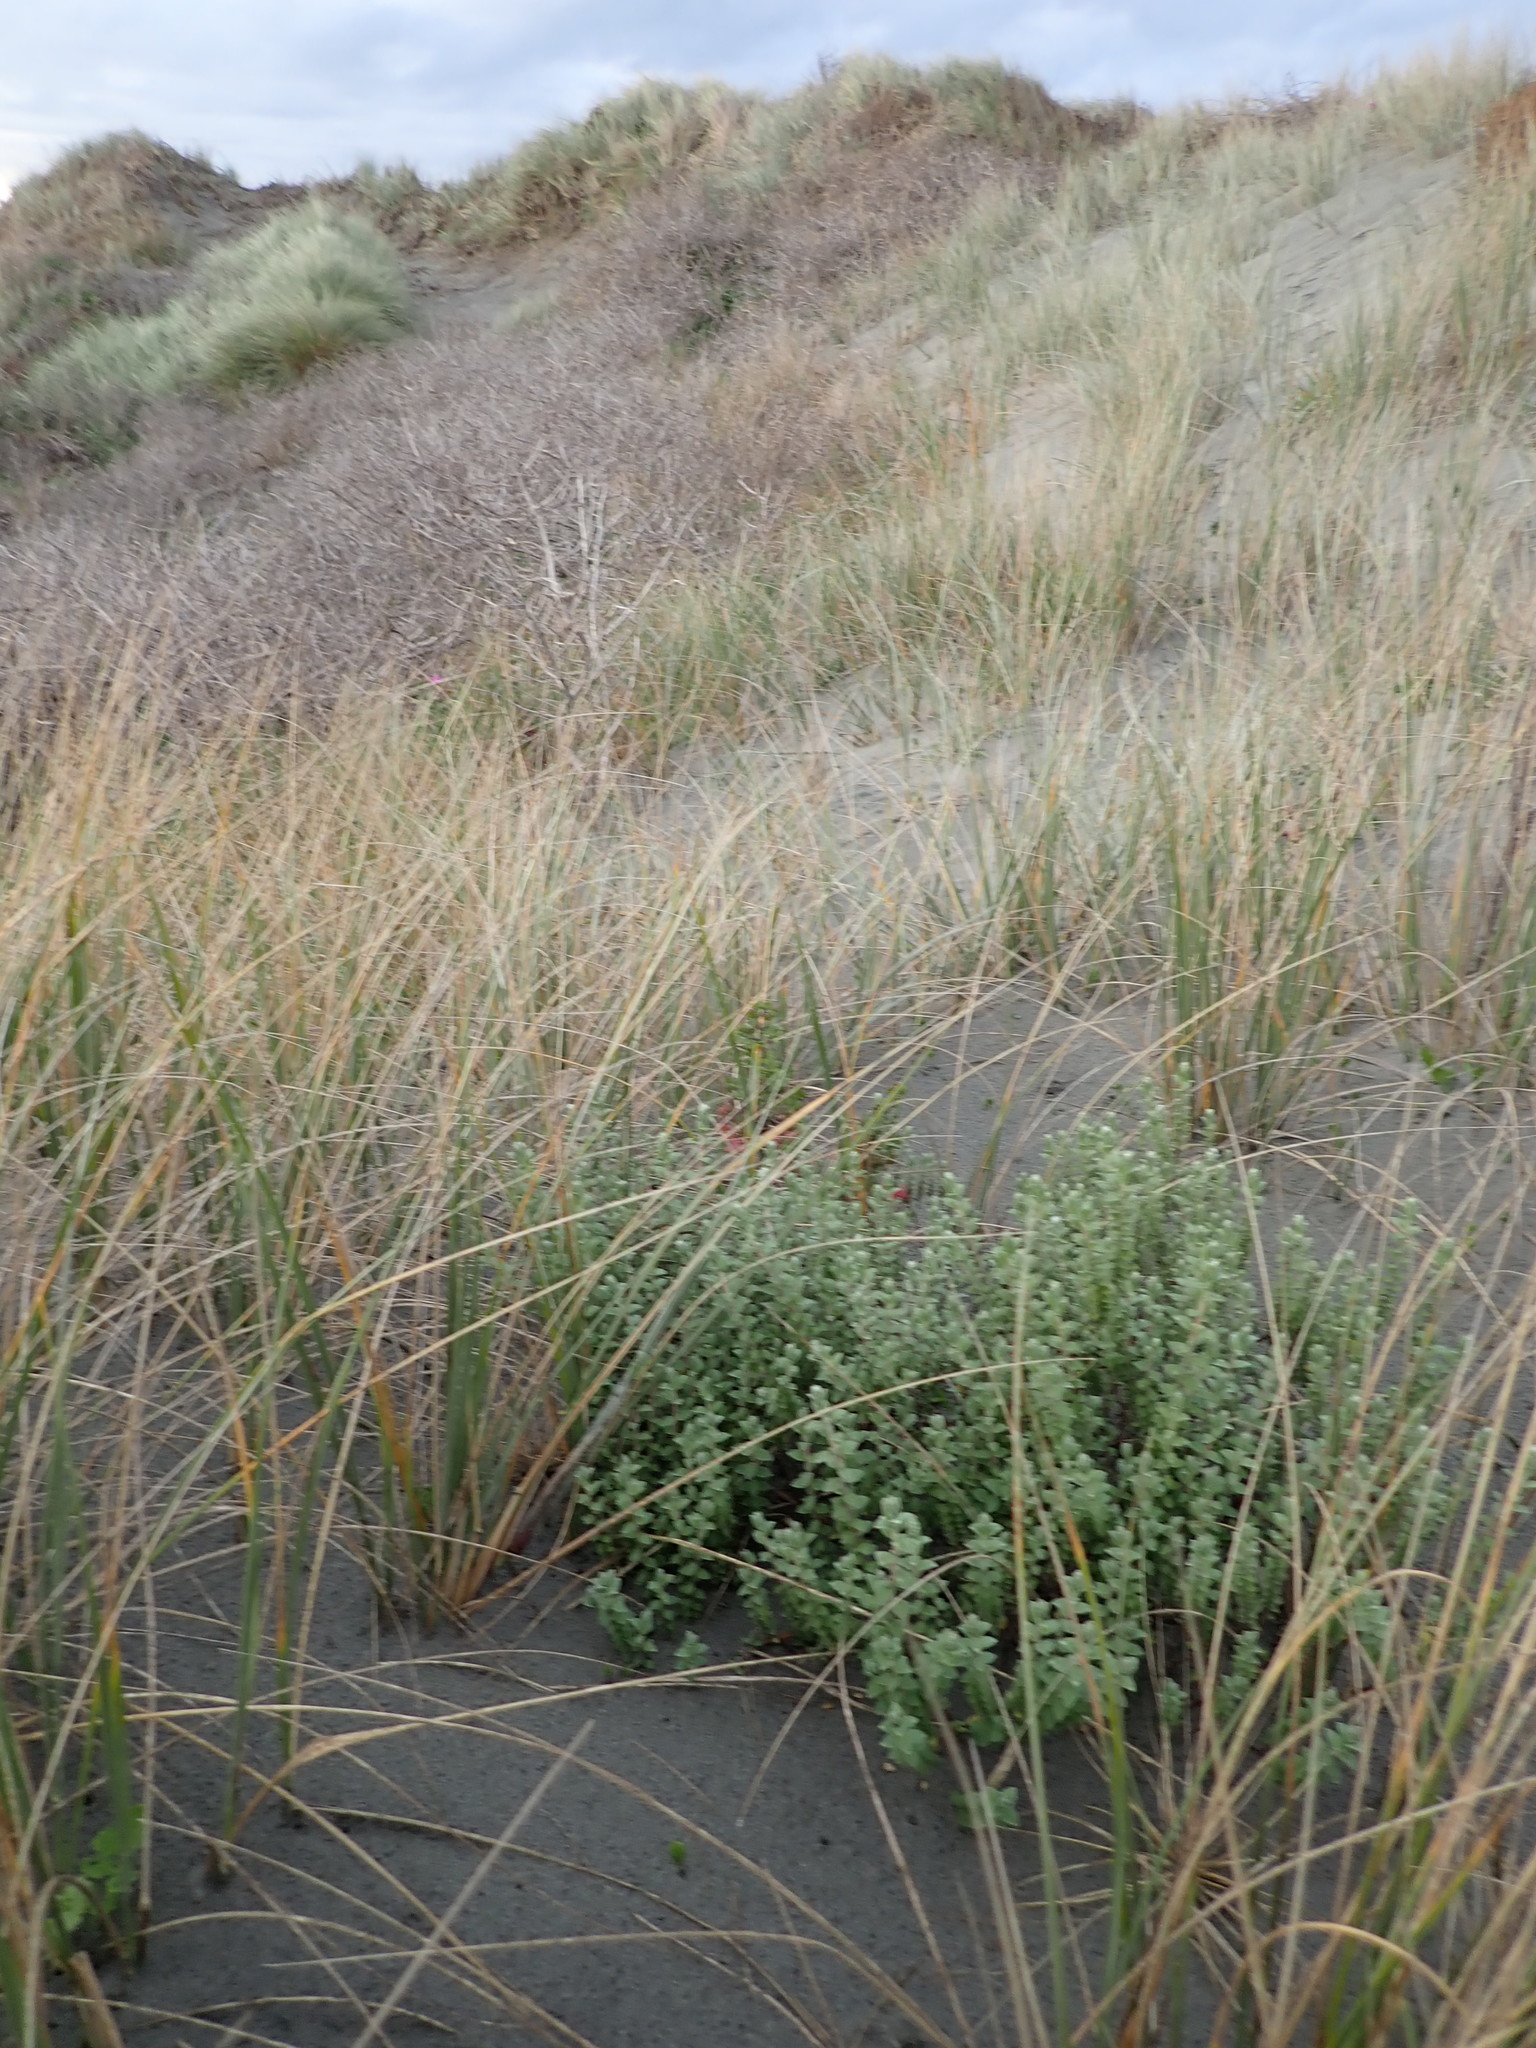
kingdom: Plantae
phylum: Tracheophyta
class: Magnoliopsida
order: Malvales
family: Thymelaeaceae
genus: Pimelea
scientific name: Pimelea villosa
